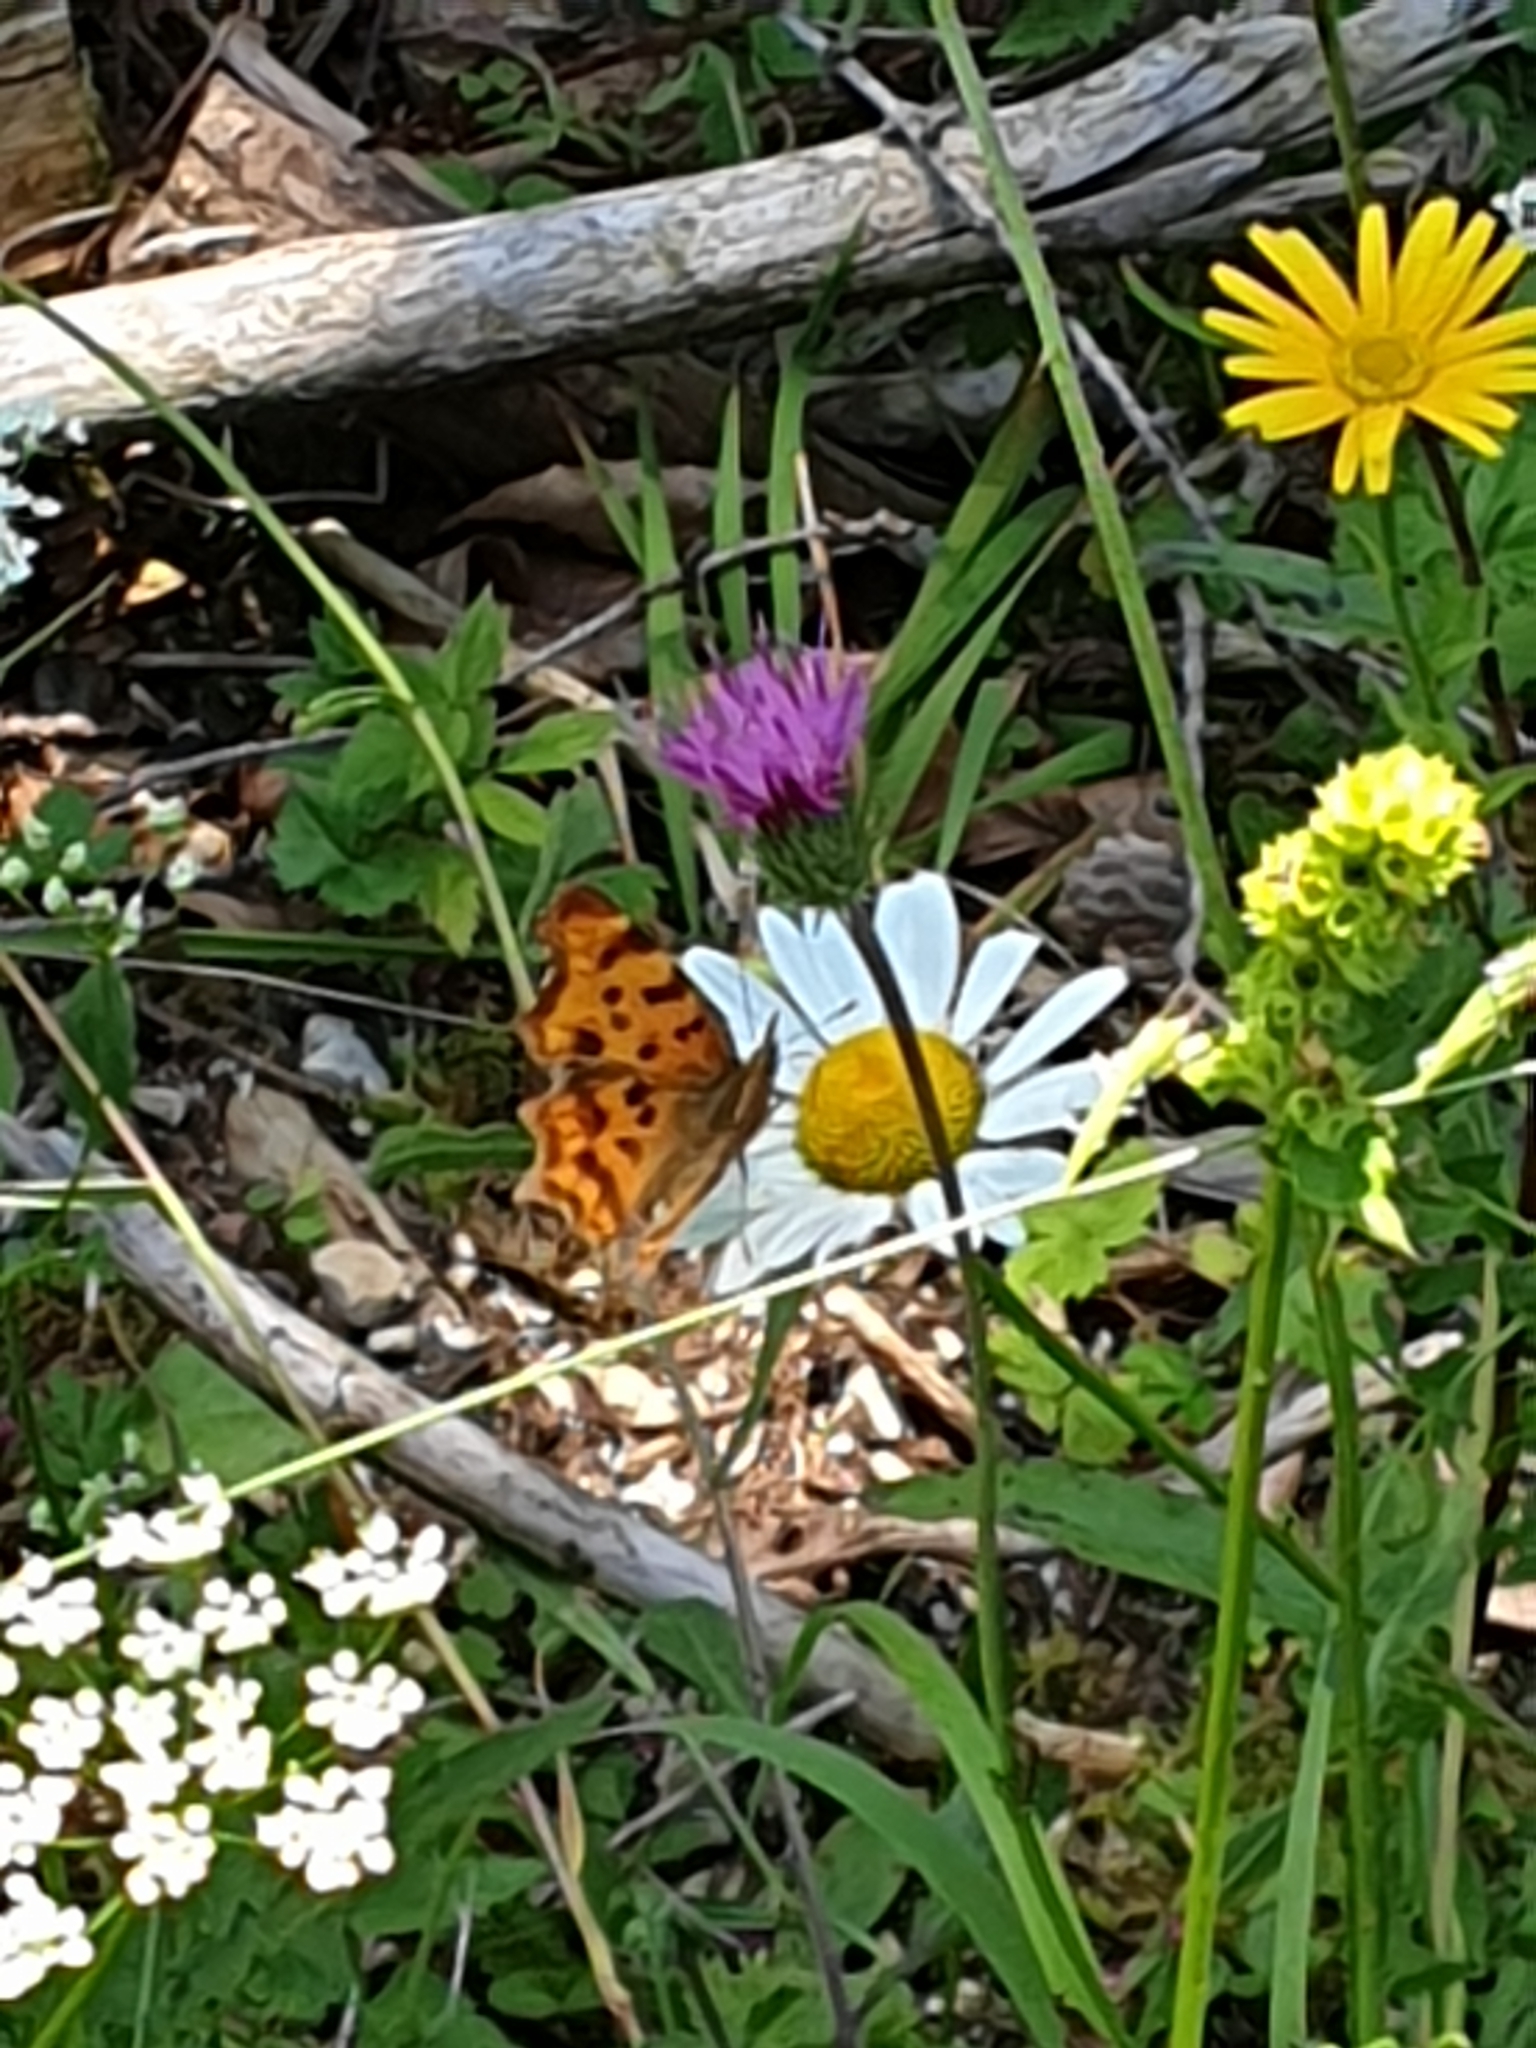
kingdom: Animalia
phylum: Arthropoda
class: Insecta
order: Lepidoptera
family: Nymphalidae
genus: Polygonia
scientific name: Polygonia c-album
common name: Comma
